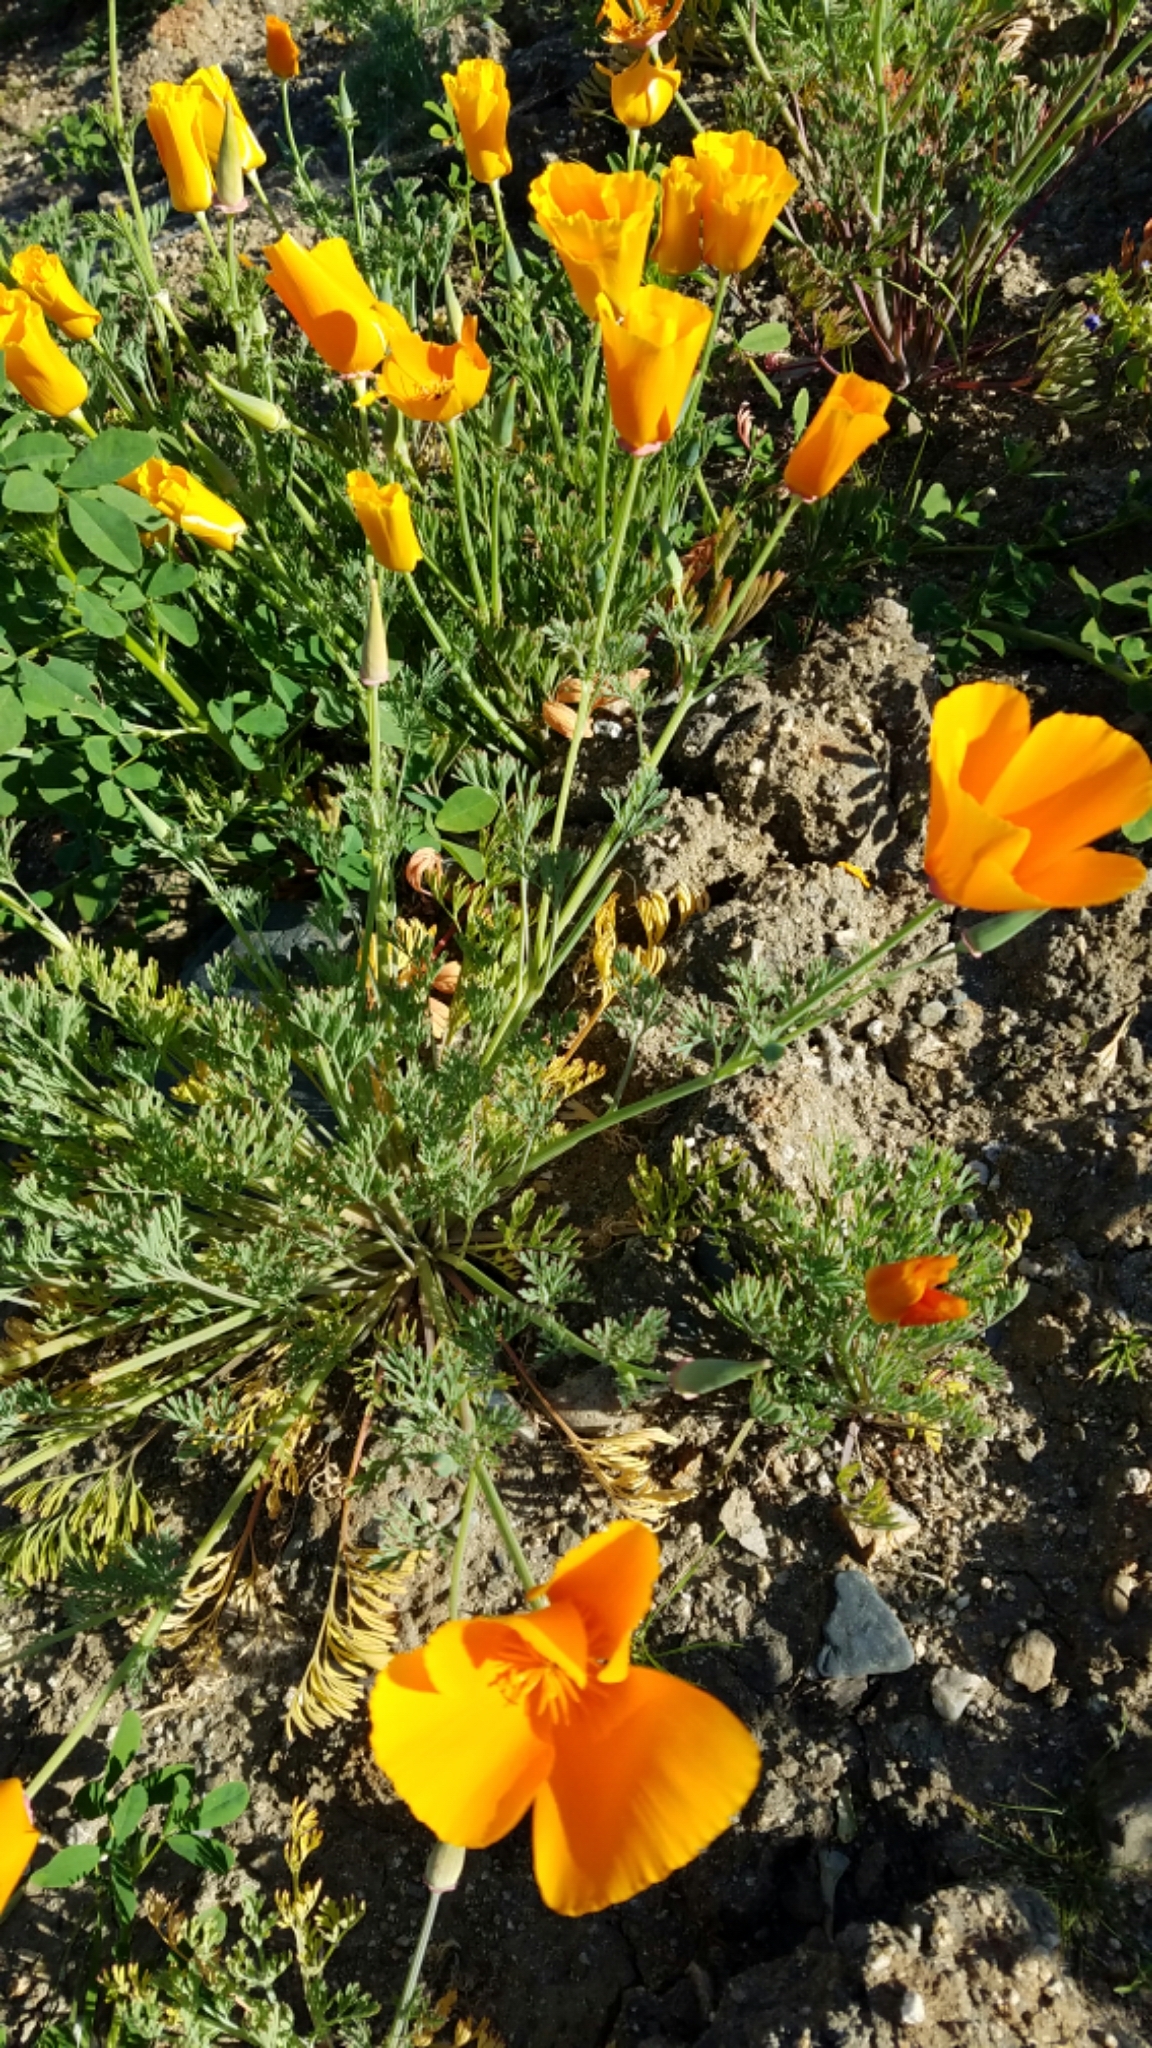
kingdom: Plantae
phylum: Tracheophyta
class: Magnoliopsida
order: Ranunculales
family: Papaveraceae
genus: Eschscholzia
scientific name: Eschscholzia californica
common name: California poppy
